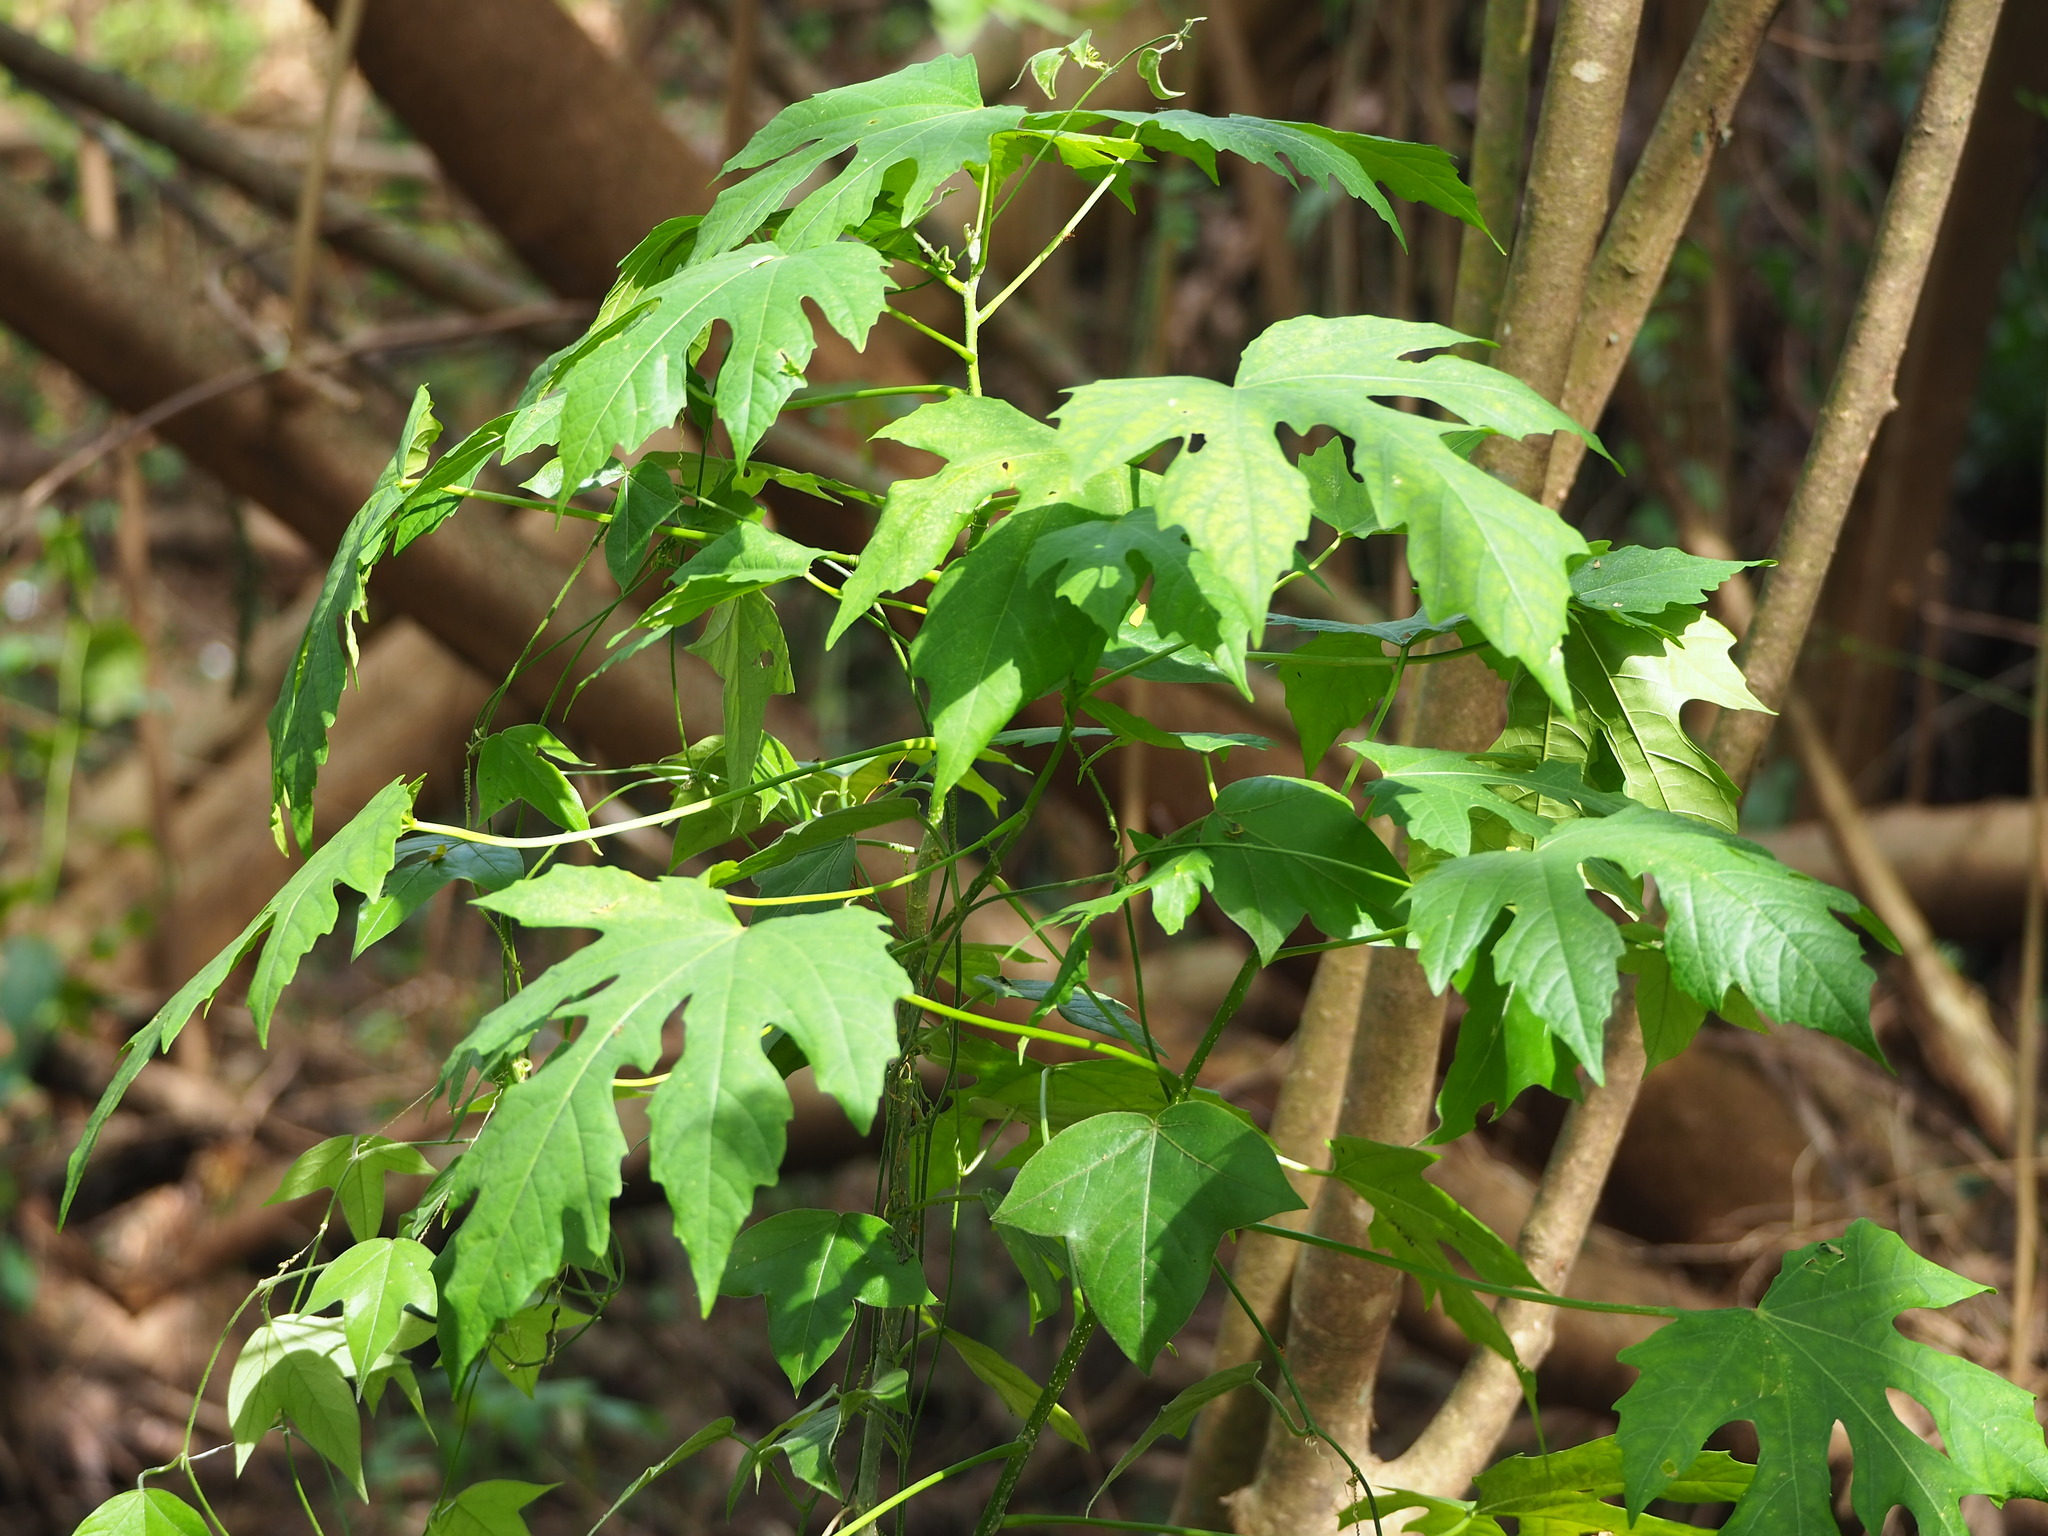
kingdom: Plantae
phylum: Tracheophyta
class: Magnoliopsida
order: Malpighiales
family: Euphorbiaceae
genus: Melanolepis
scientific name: Melanolepis multiglandulosa
